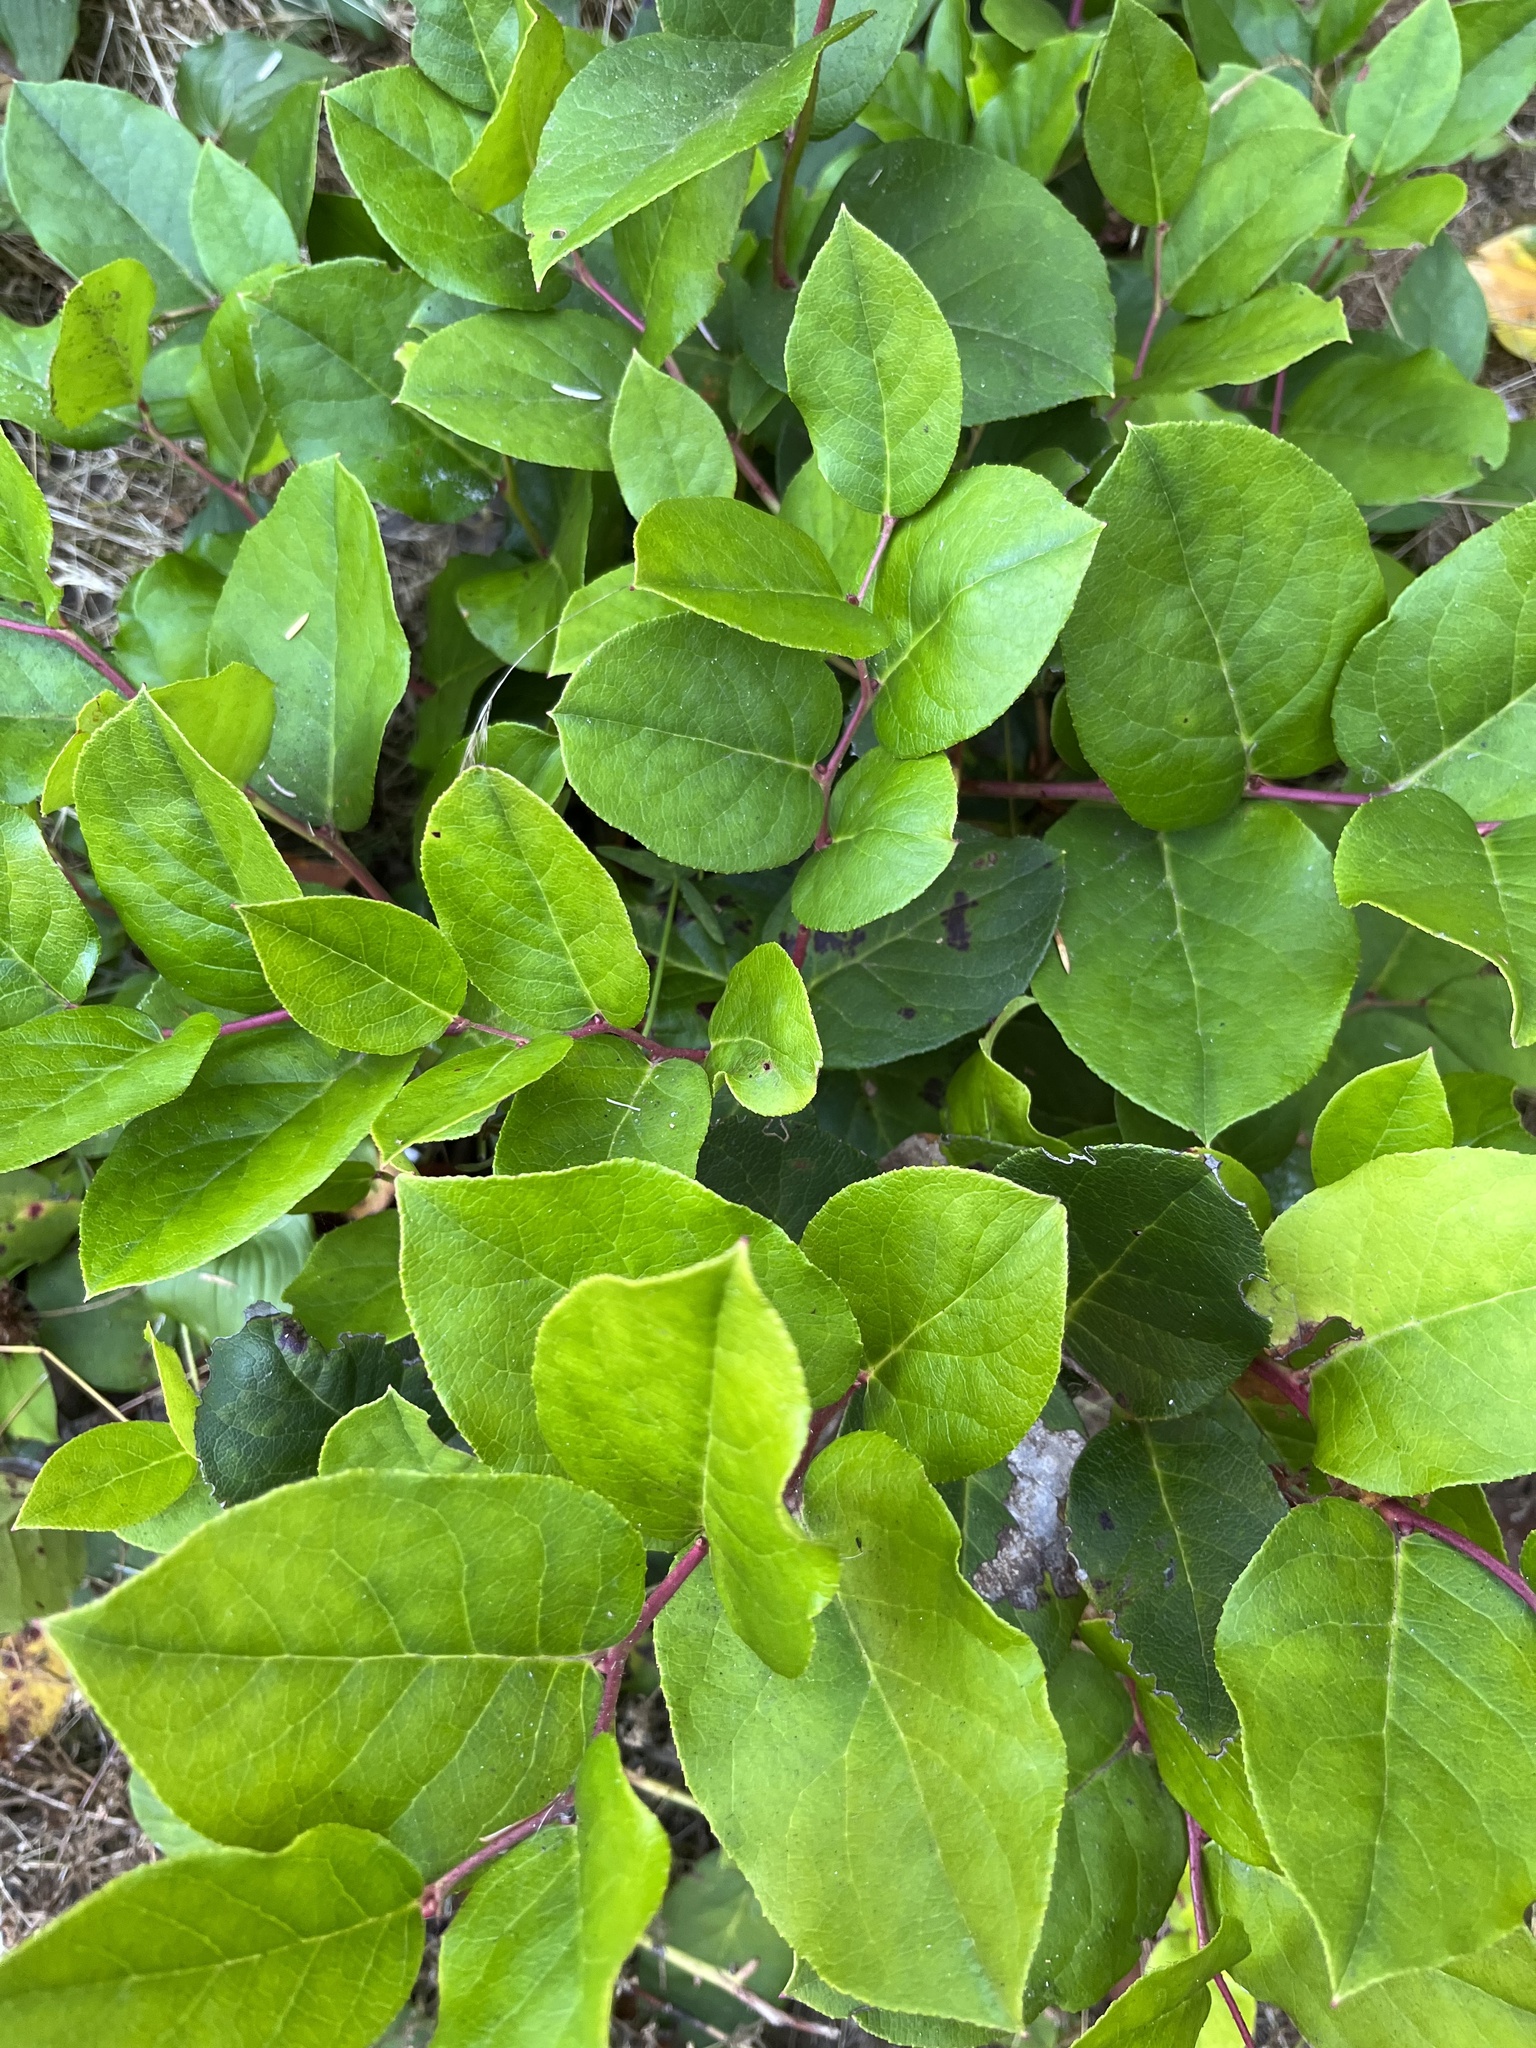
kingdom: Plantae
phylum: Tracheophyta
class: Magnoliopsida
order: Ericales
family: Ericaceae
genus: Gaultheria
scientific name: Gaultheria shallon
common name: Shallon
